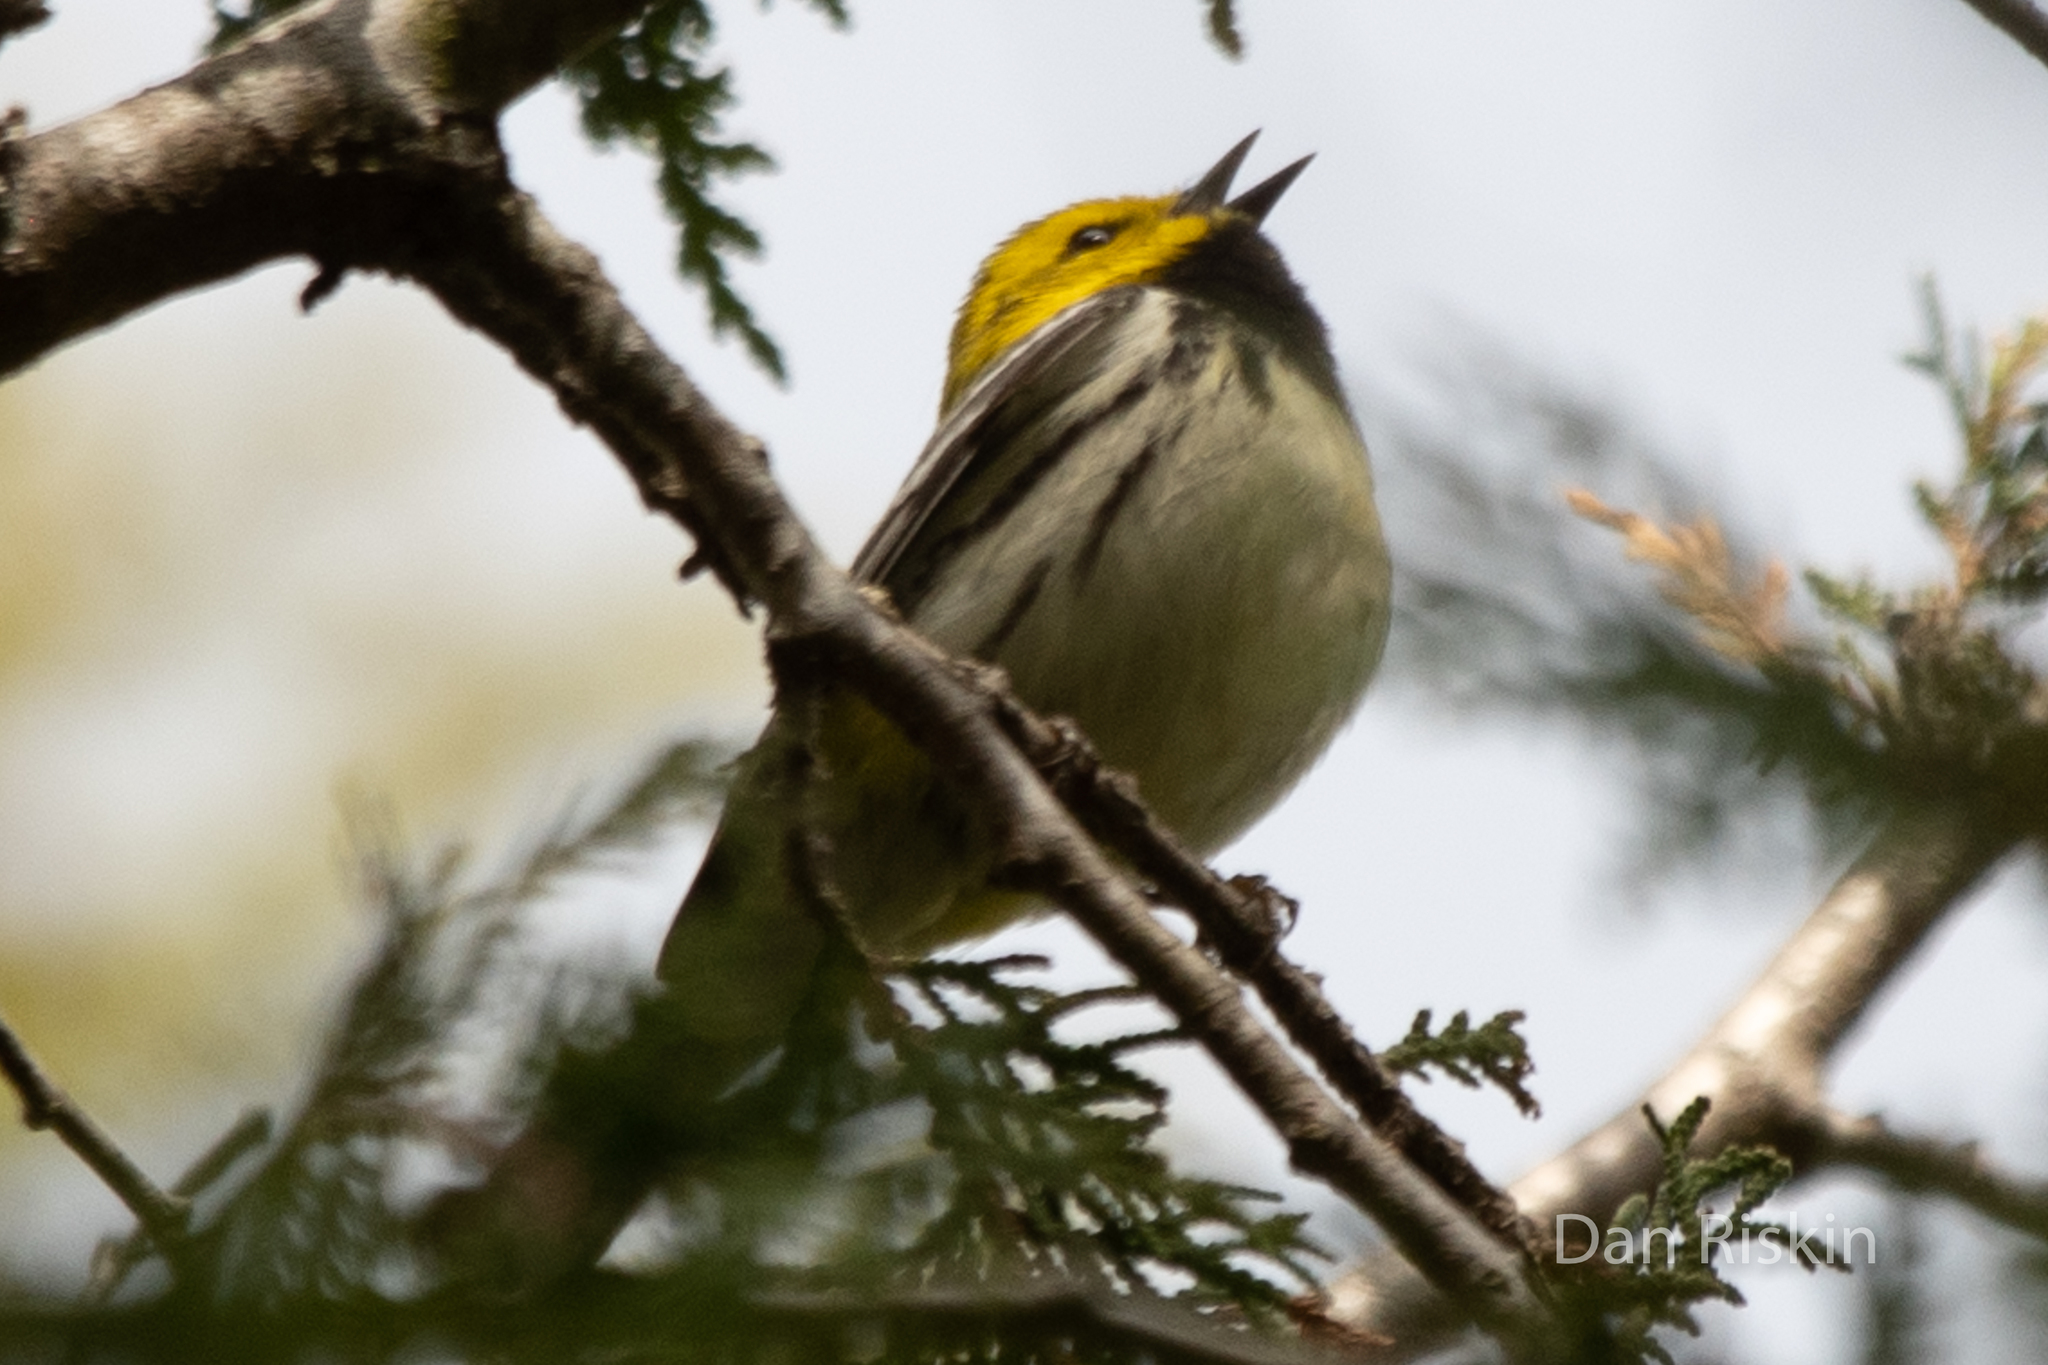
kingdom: Animalia
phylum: Chordata
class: Aves
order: Passeriformes
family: Parulidae
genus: Setophaga
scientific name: Setophaga virens
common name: Black-throated green warbler
